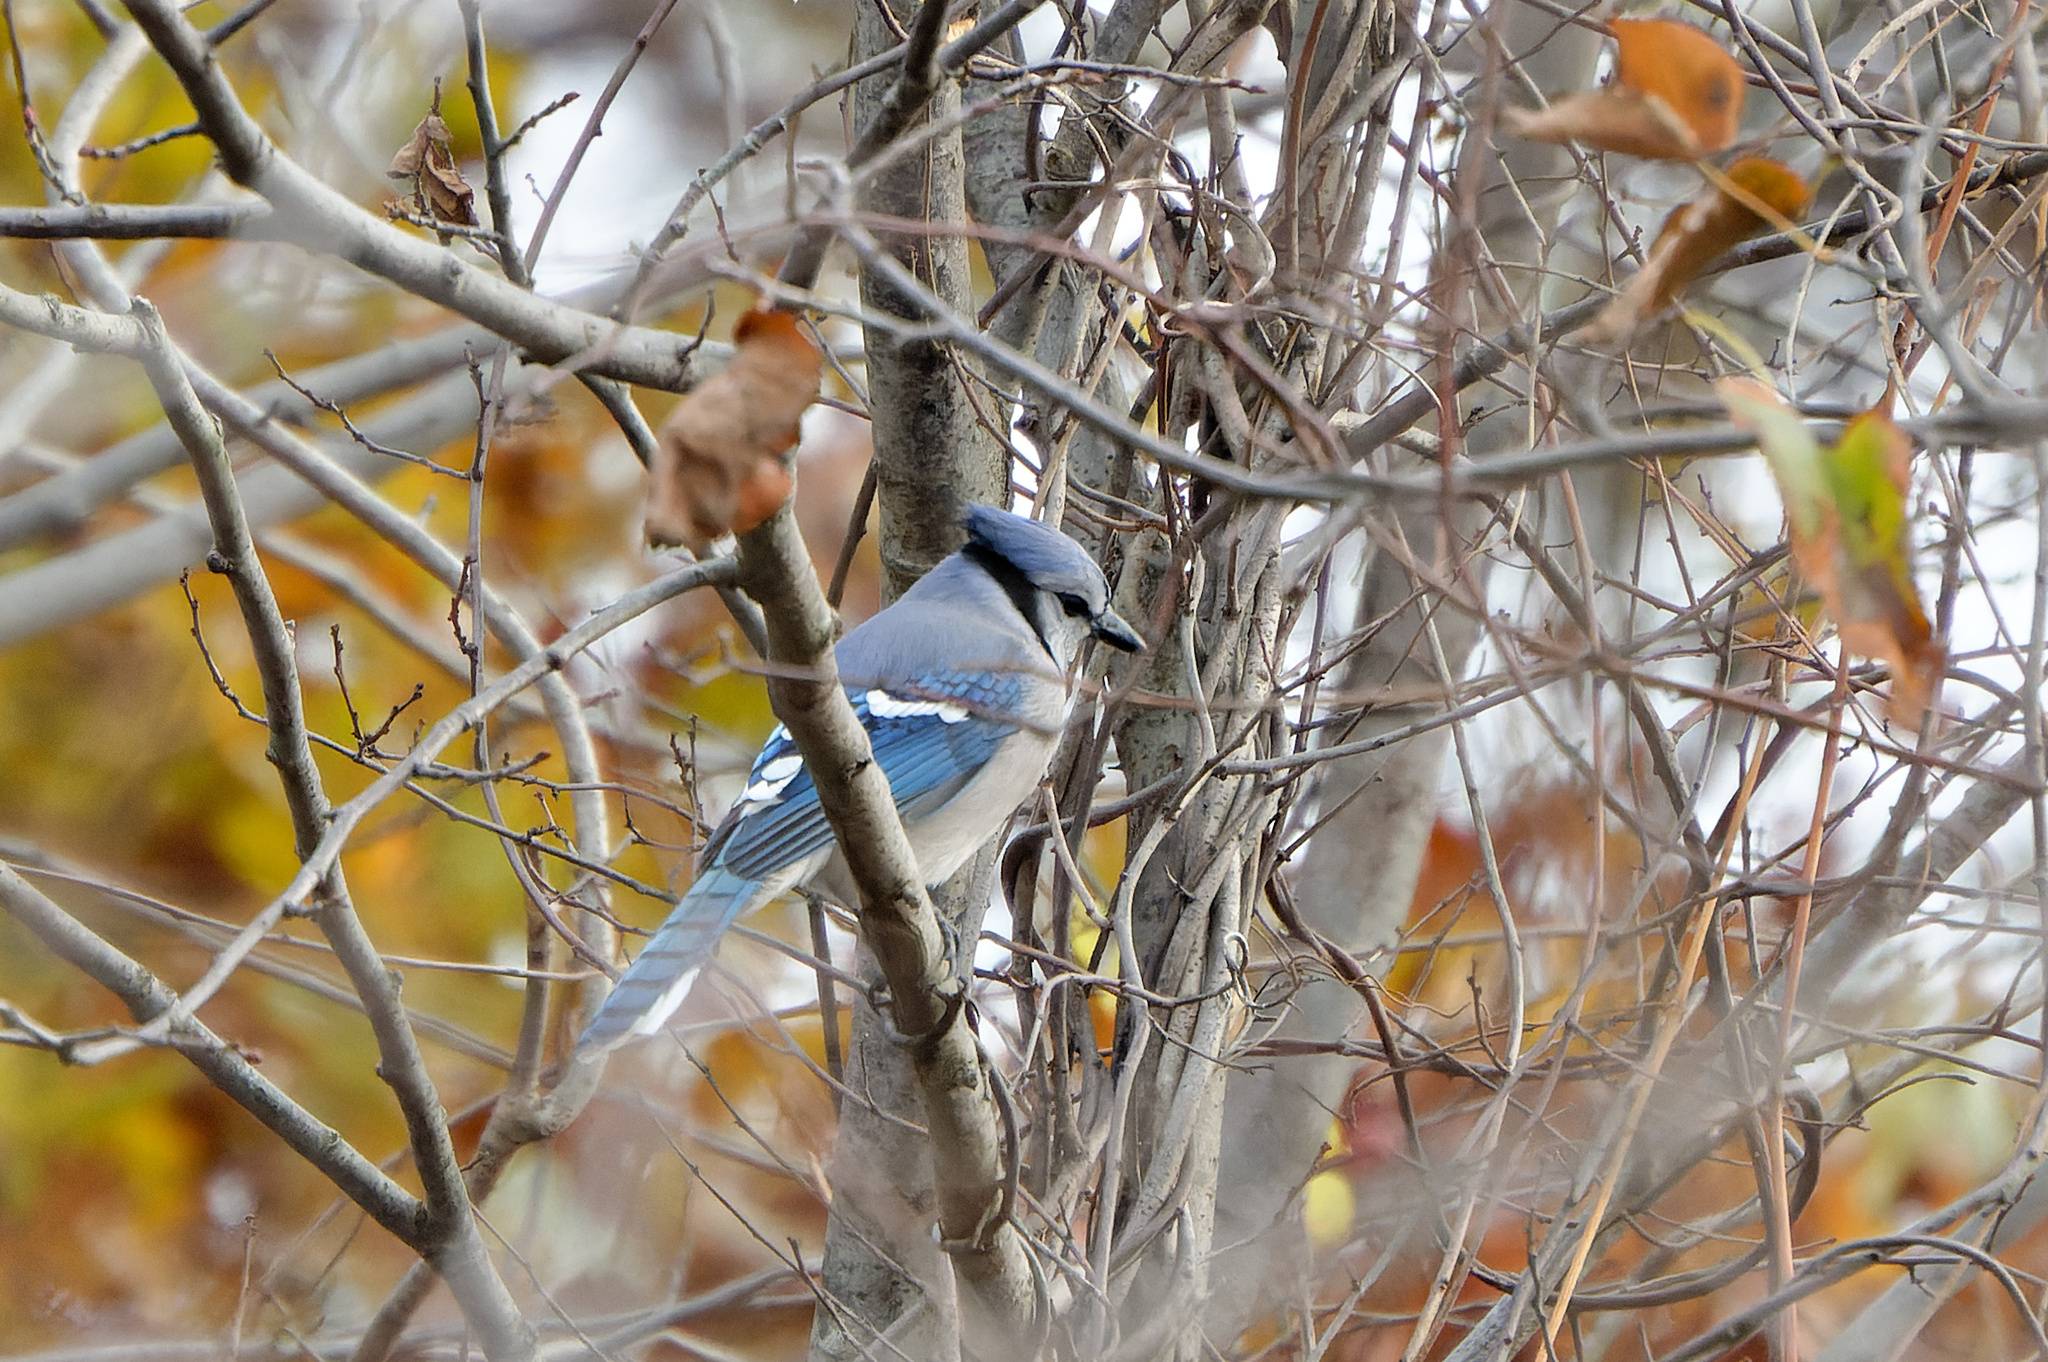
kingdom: Animalia
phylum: Chordata
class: Aves
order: Passeriformes
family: Corvidae
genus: Cyanocitta
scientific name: Cyanocitta cristata
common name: Blue jay
